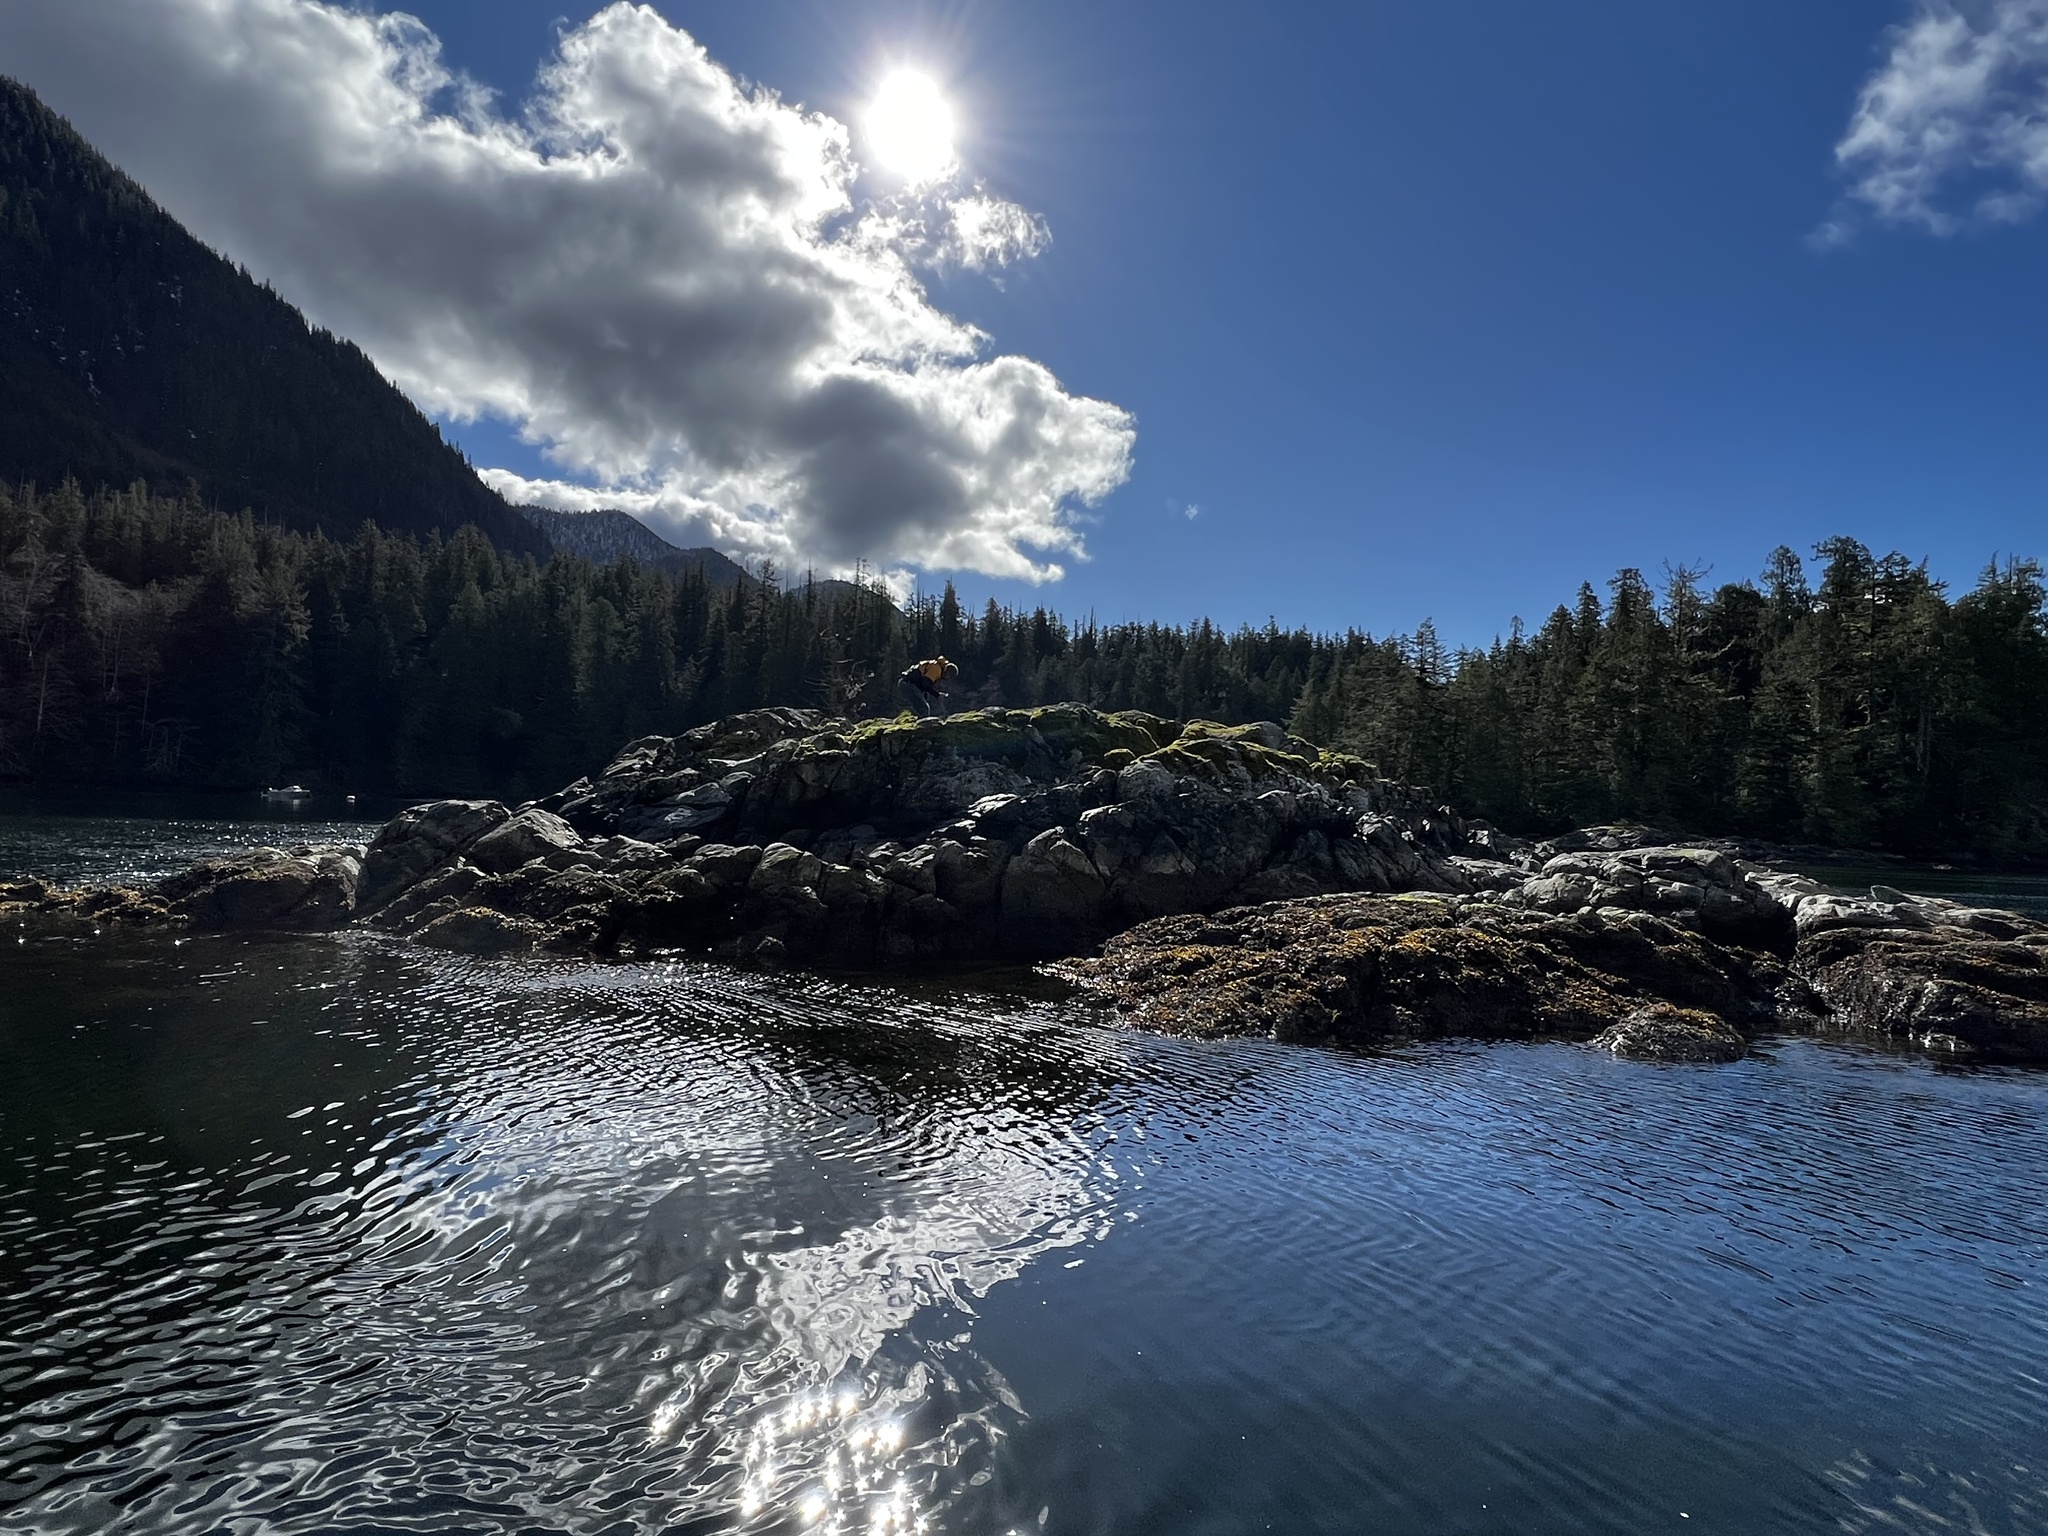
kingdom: Chromista
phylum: Ochrophyta
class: Phaeophyceae
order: Fucales
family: Fucaceae
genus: Fucus
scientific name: Fucus distichus
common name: Rockweed
